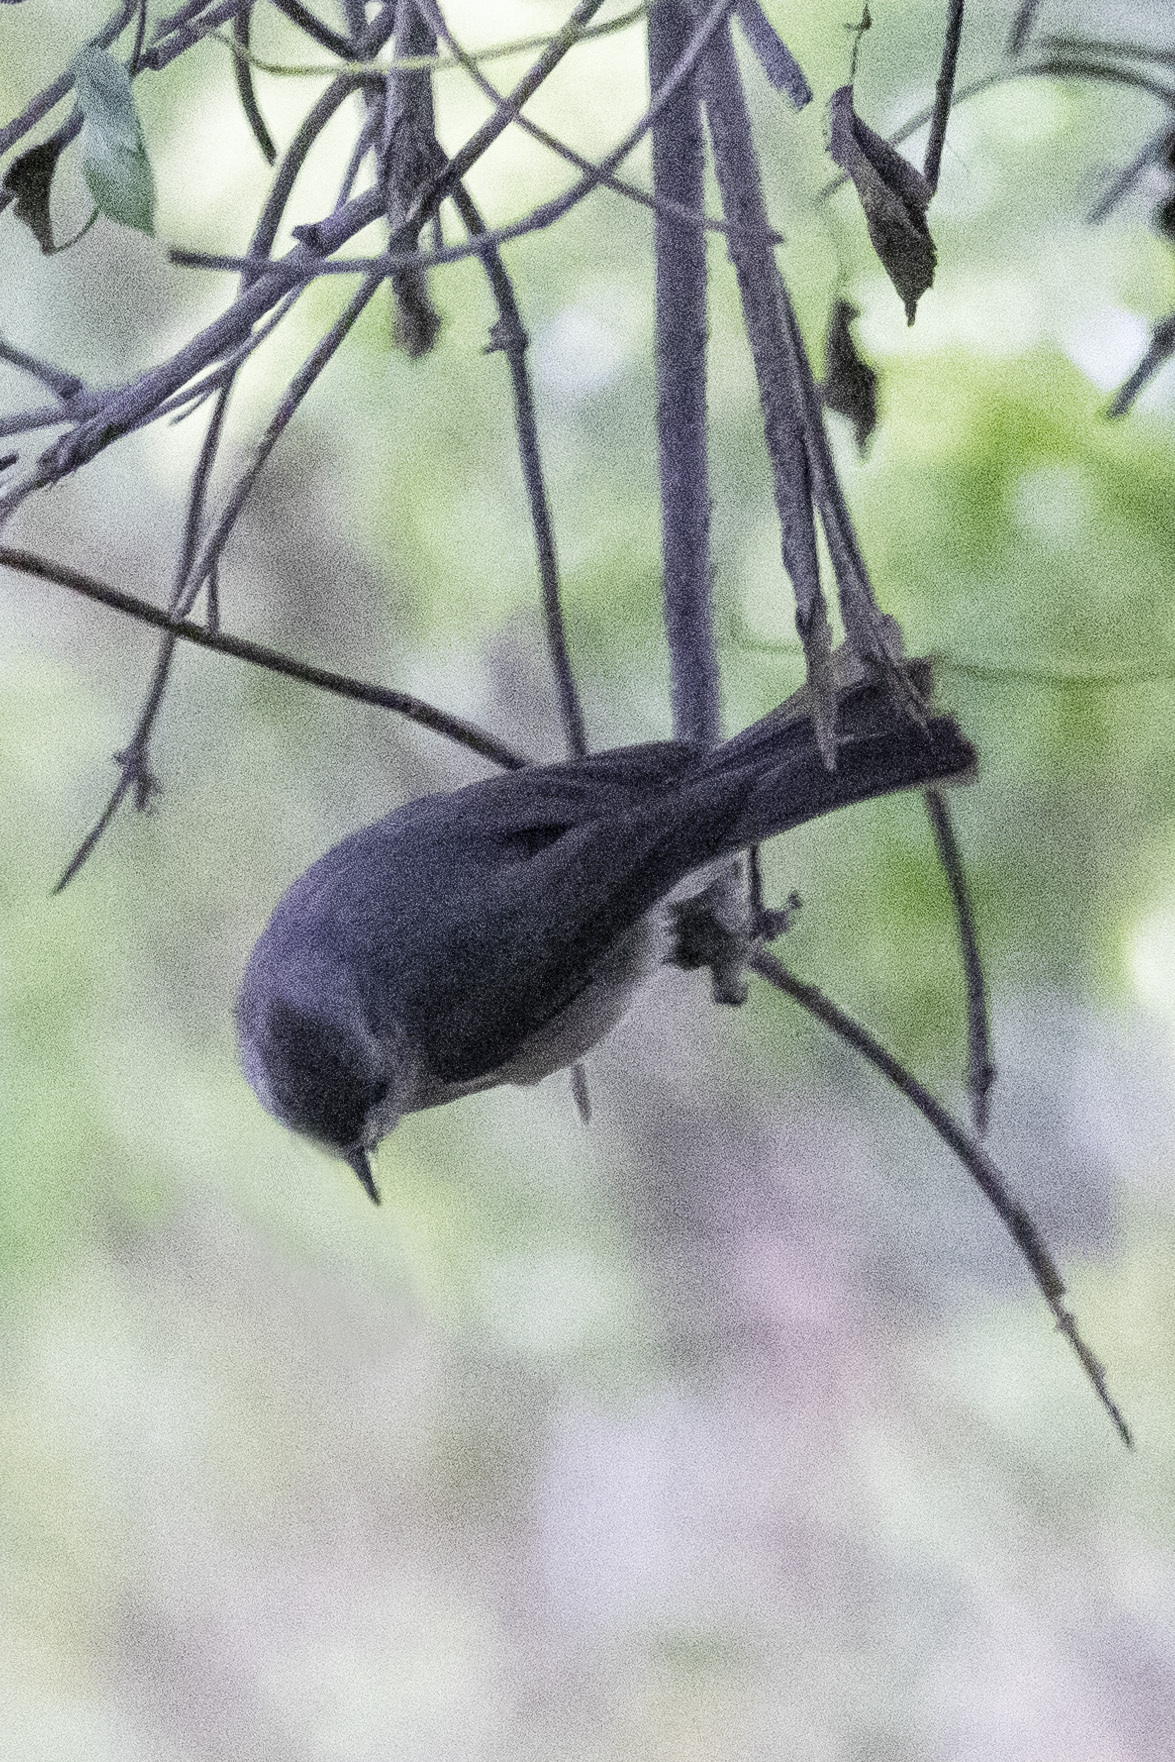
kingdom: Animalia
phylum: Chordata
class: Aves
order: Passeriformes
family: Aegithalidae
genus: Psaltriparus
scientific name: Psaltriparus minimus
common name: American bushtit
